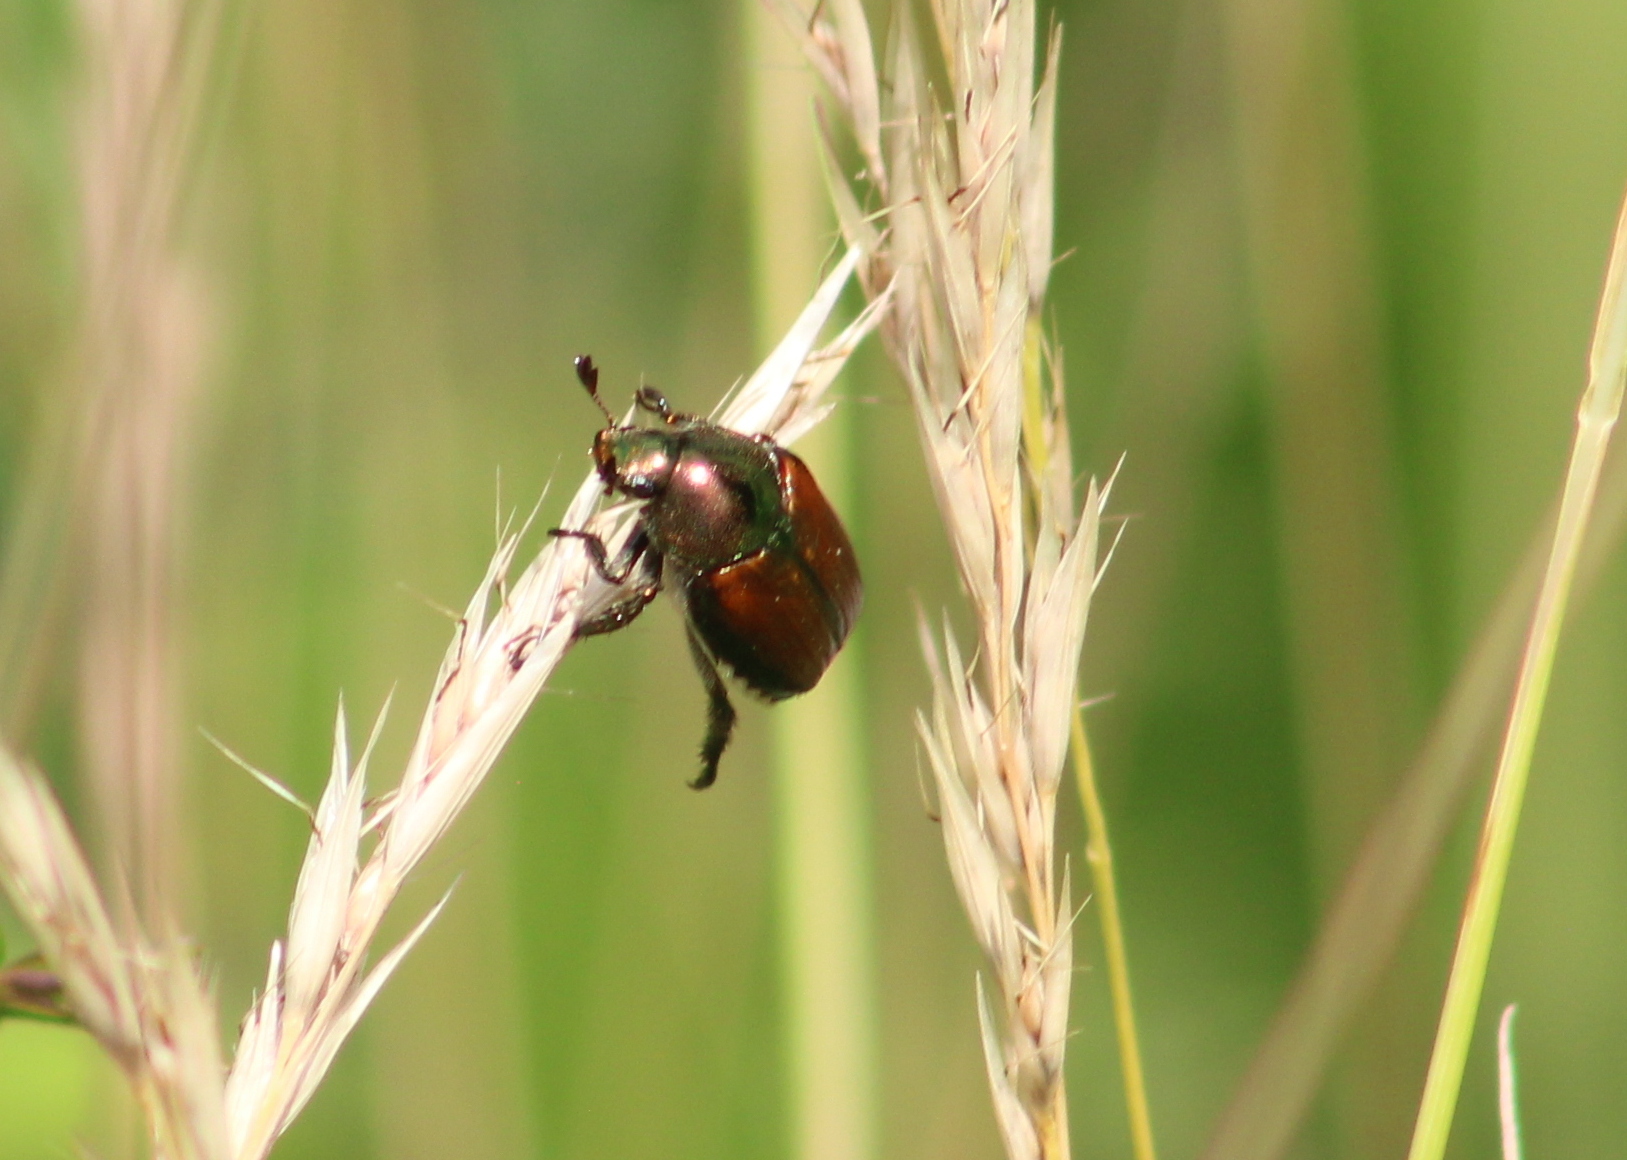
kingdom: Animalia
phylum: Arthropoda
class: Insecta
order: Coleoptera
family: Scarabaeidae
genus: Popillia
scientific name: Popillia japonica
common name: Japanese beetle
